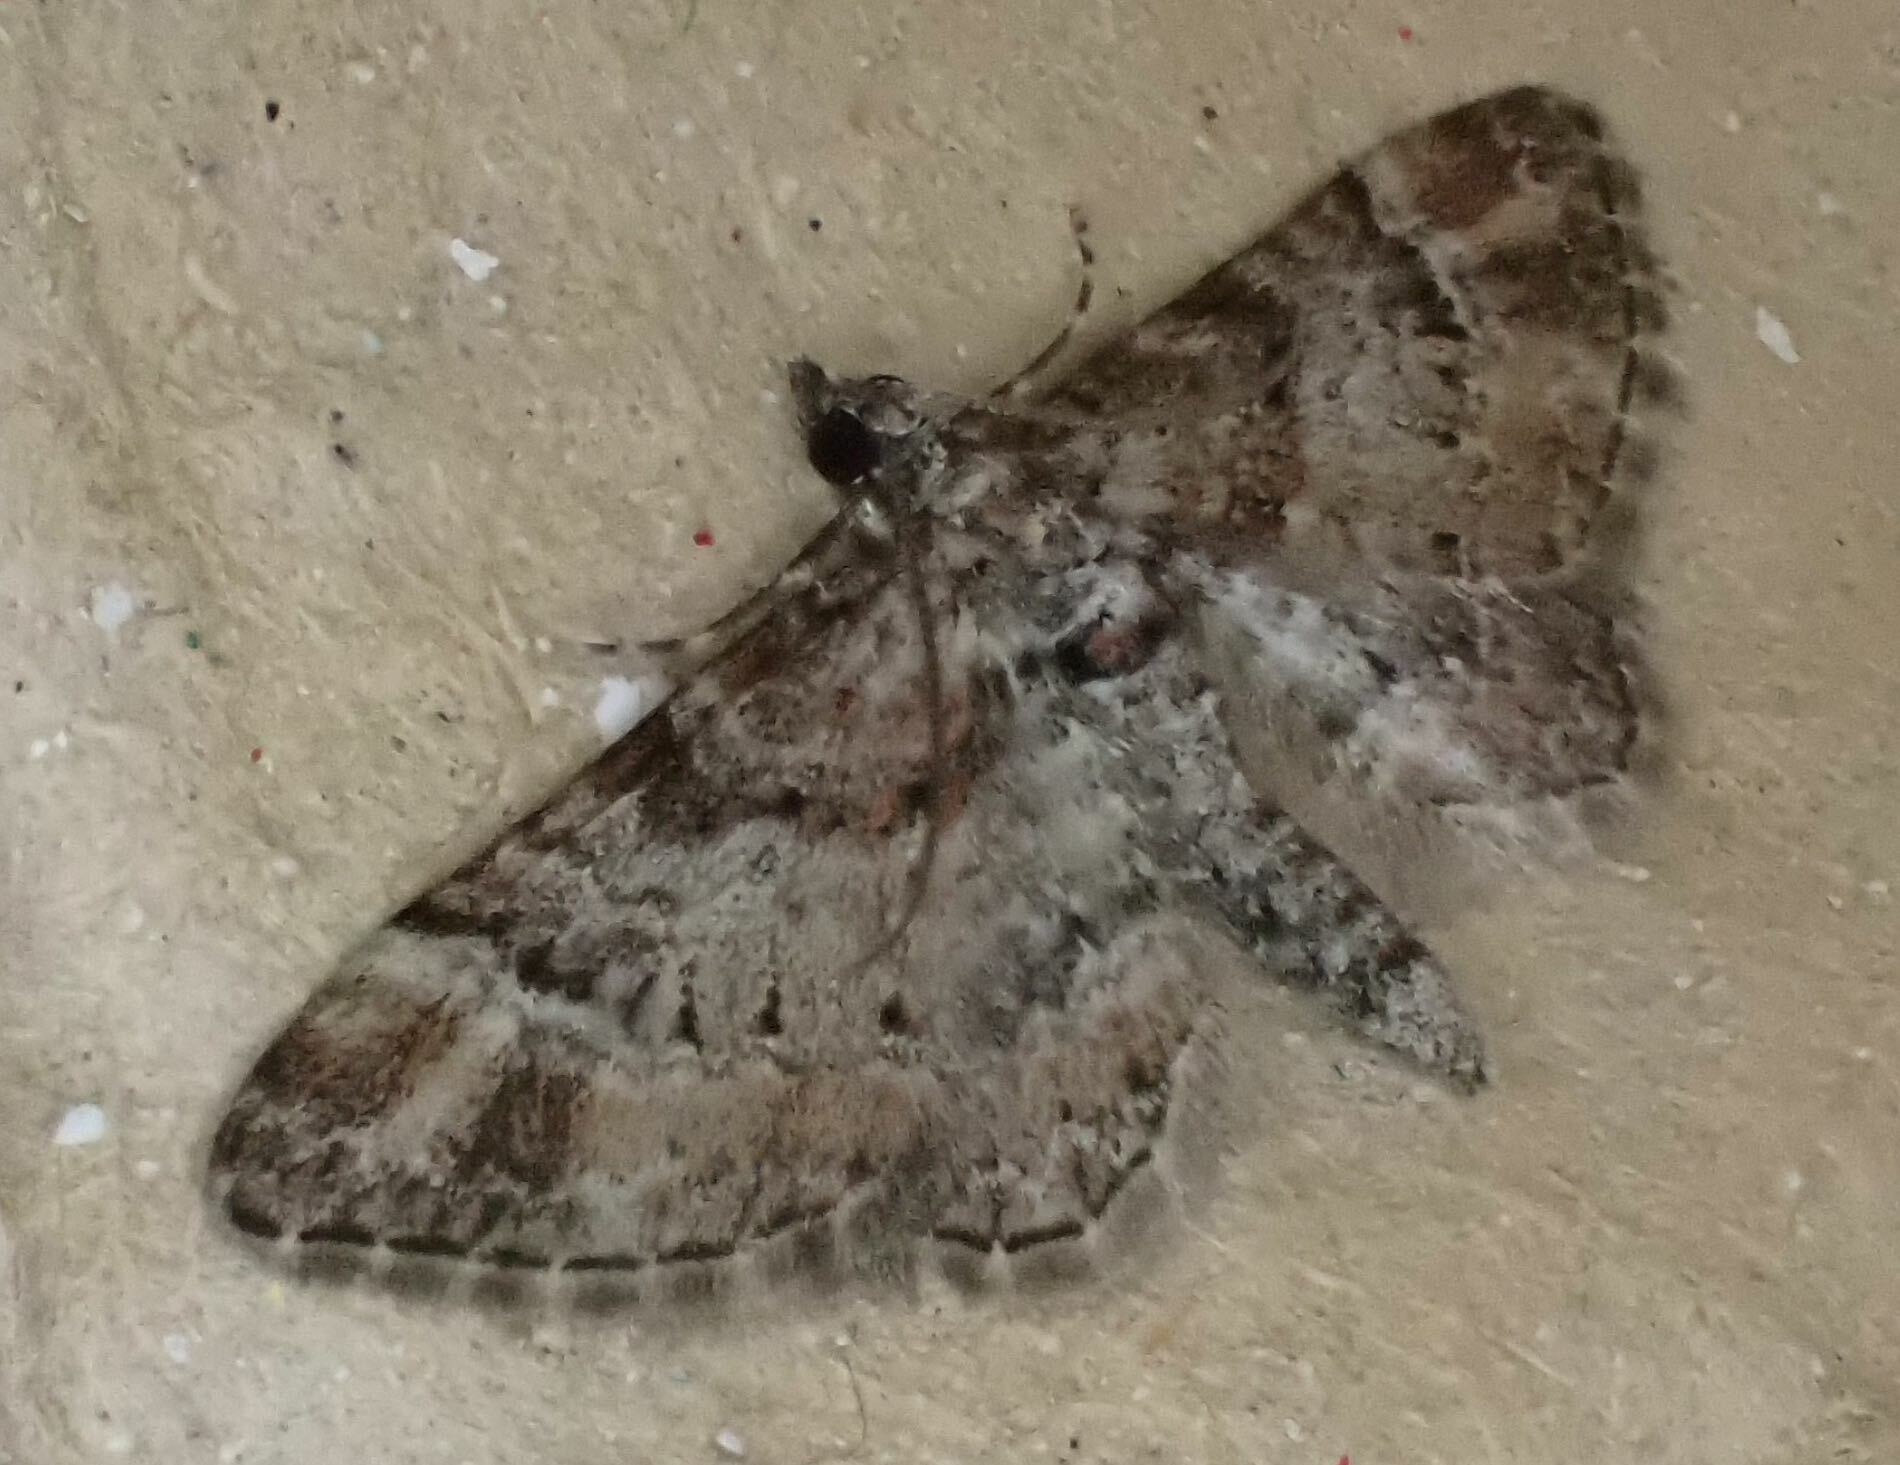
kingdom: Animalia
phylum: Arthropoda
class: Insecta
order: Lepidoptera
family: Geometridae
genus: Gymnoscelis
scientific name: Gymnoscelis rufifasciata
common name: Double-striped pug
